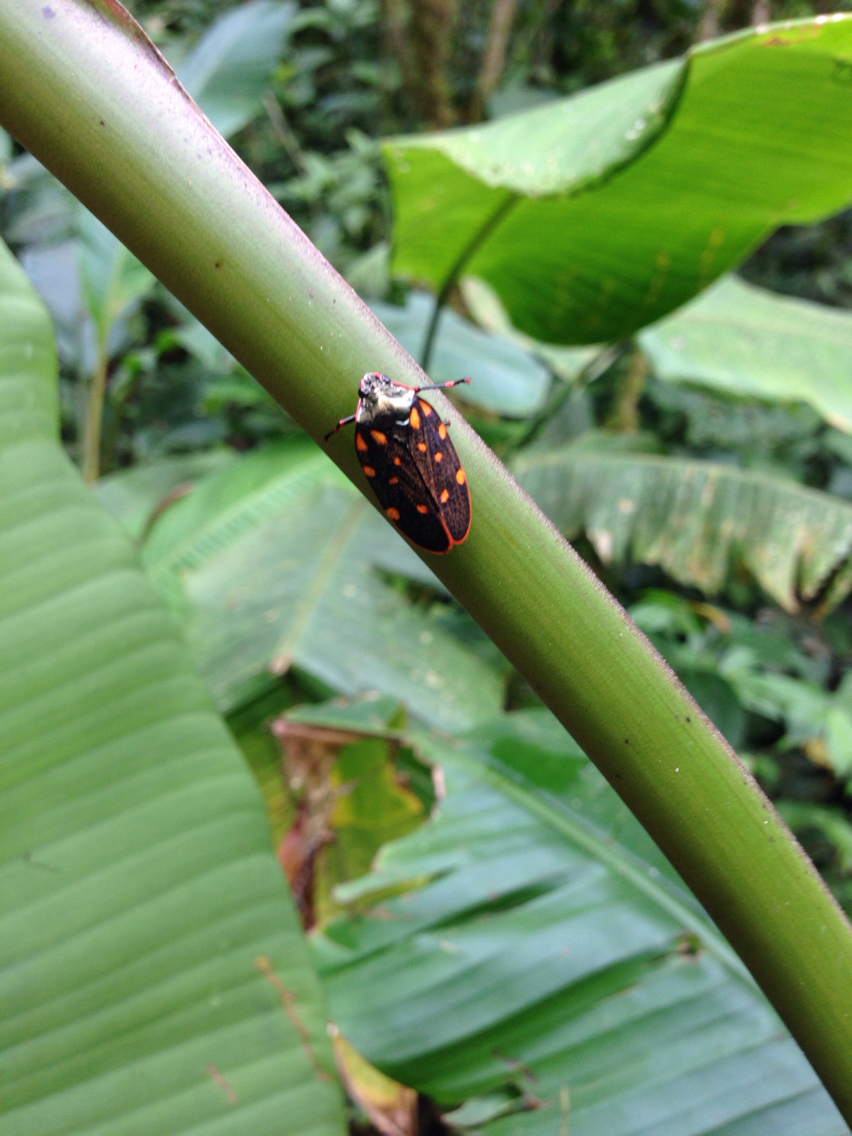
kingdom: Animalia
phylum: Arthropoda
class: Insecta
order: Hemiptera
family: Cercopidae
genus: Mahanarva
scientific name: Mahanarva costaricensis
